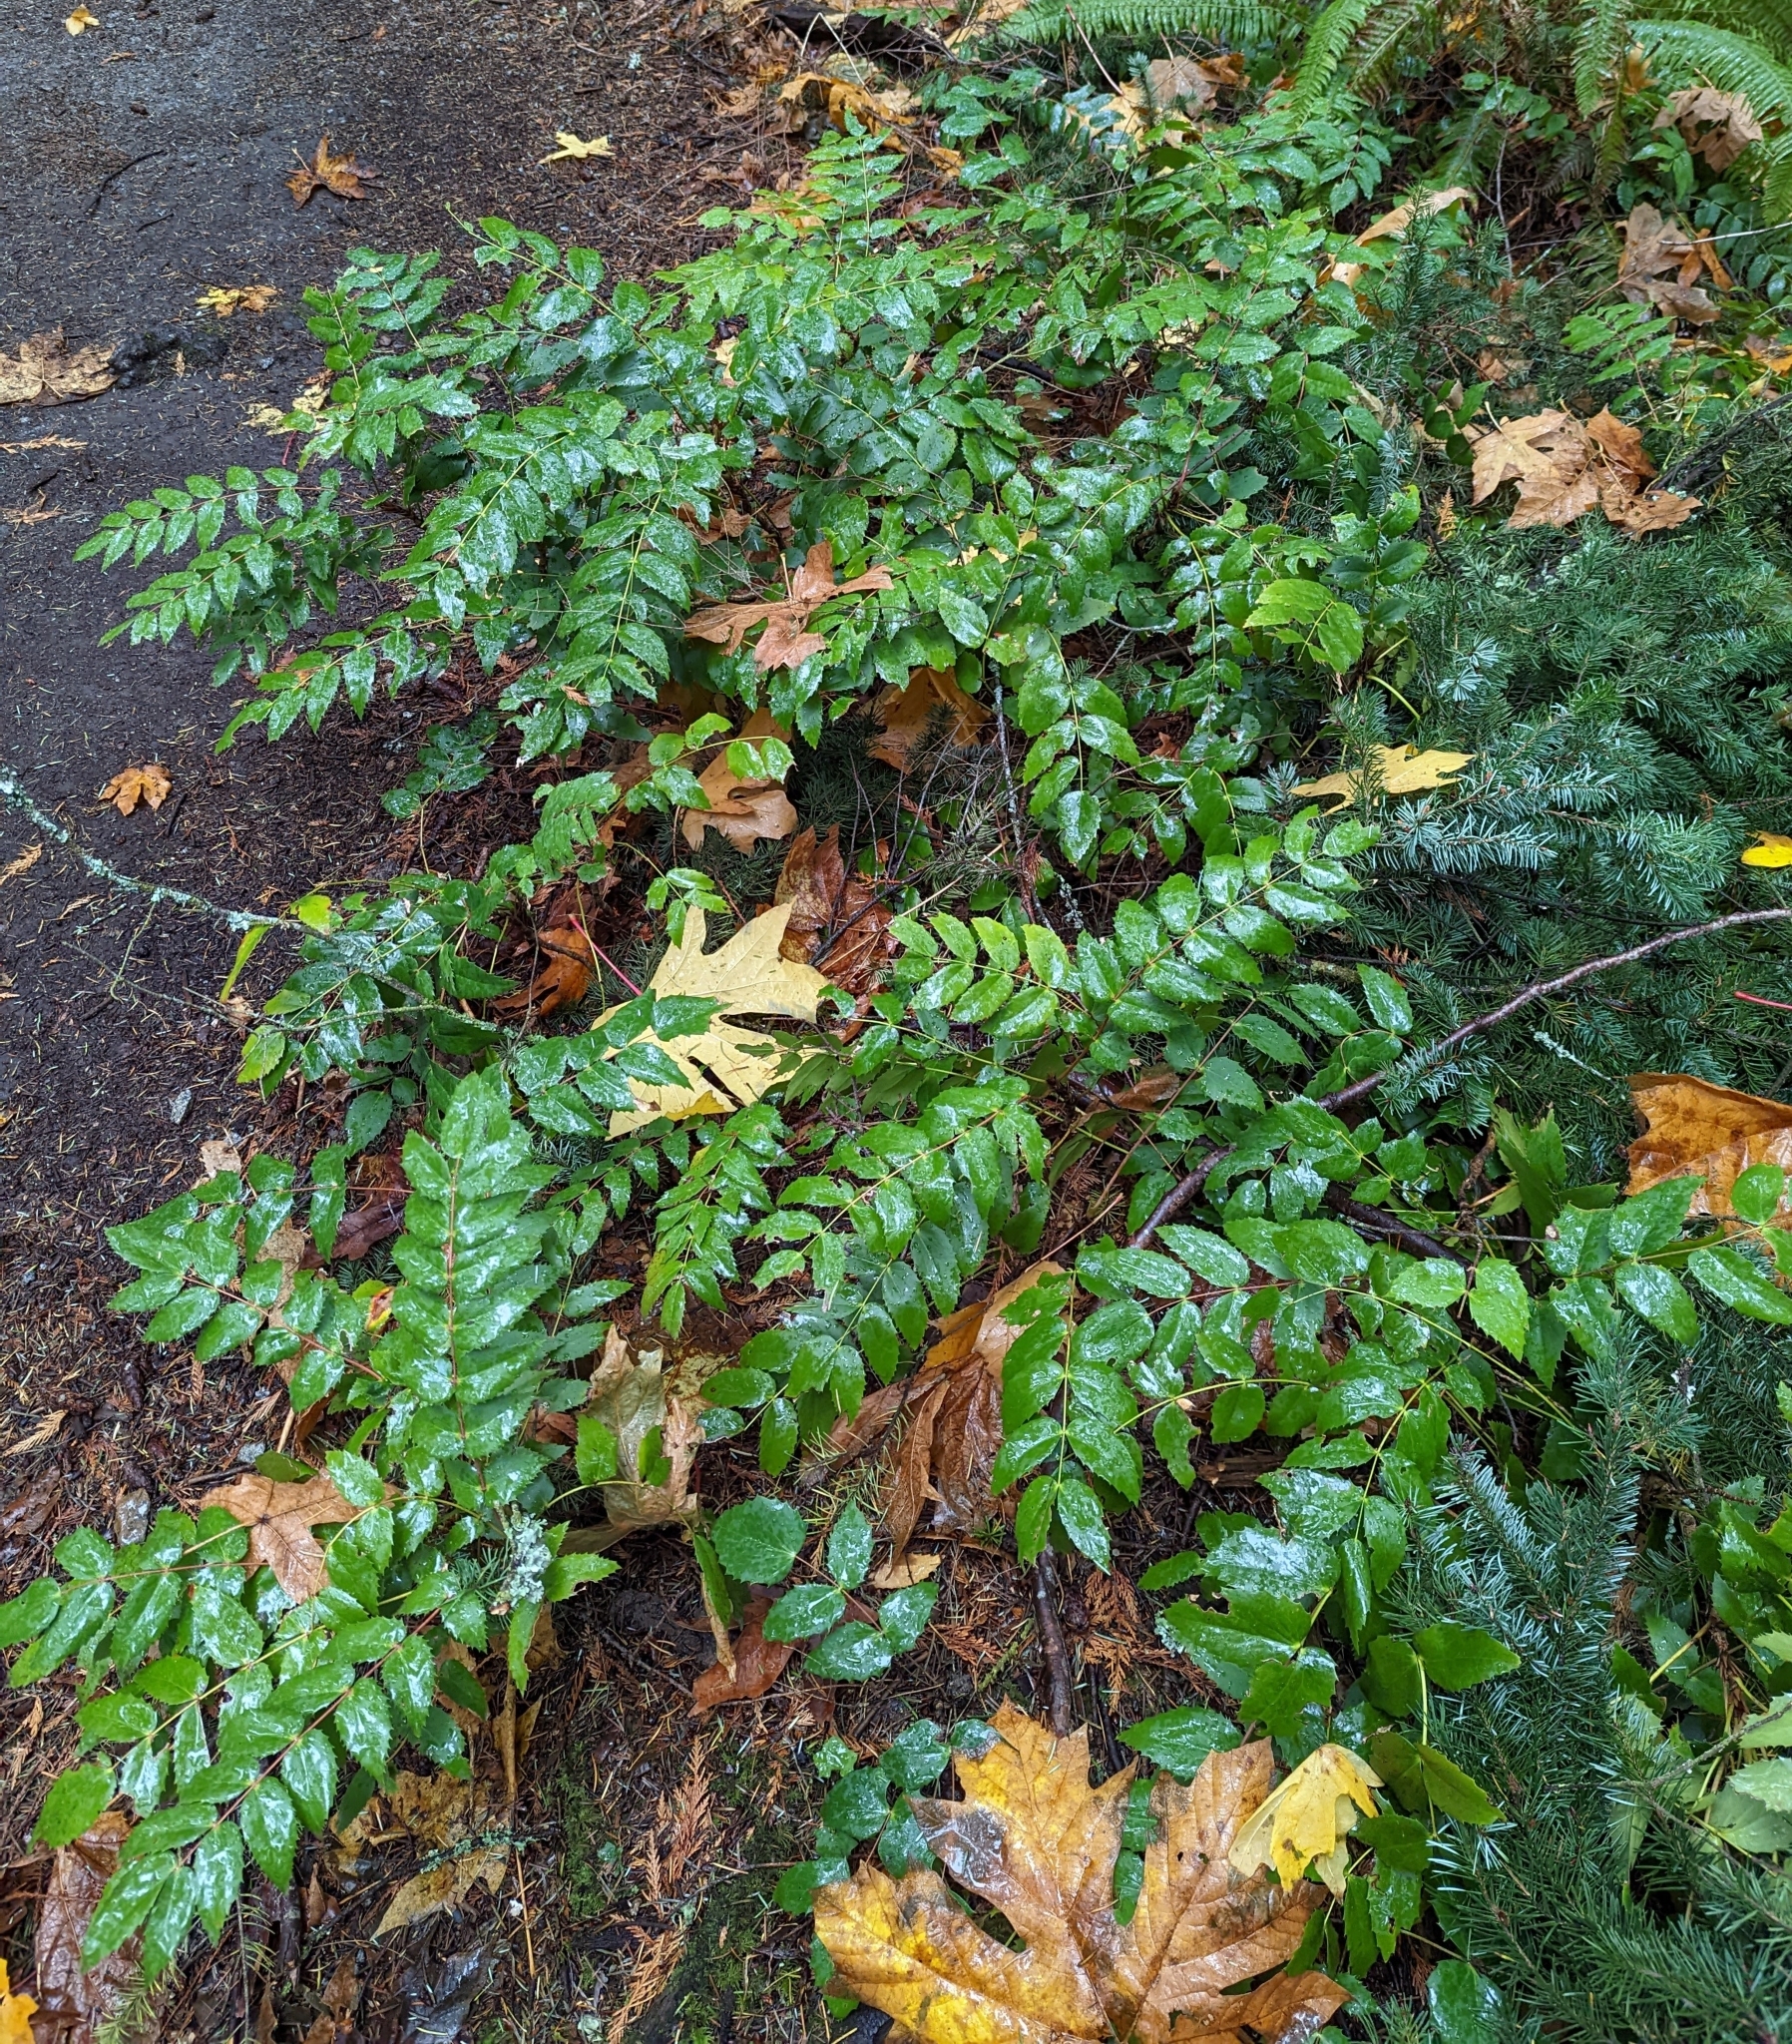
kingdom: Plantae
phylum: Tracheophyta
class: Magnoliopsida
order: Ranunculales
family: Berberidaceae
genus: Mahonia
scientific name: Mahonia nervosa
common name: Cascade oregon-grape
